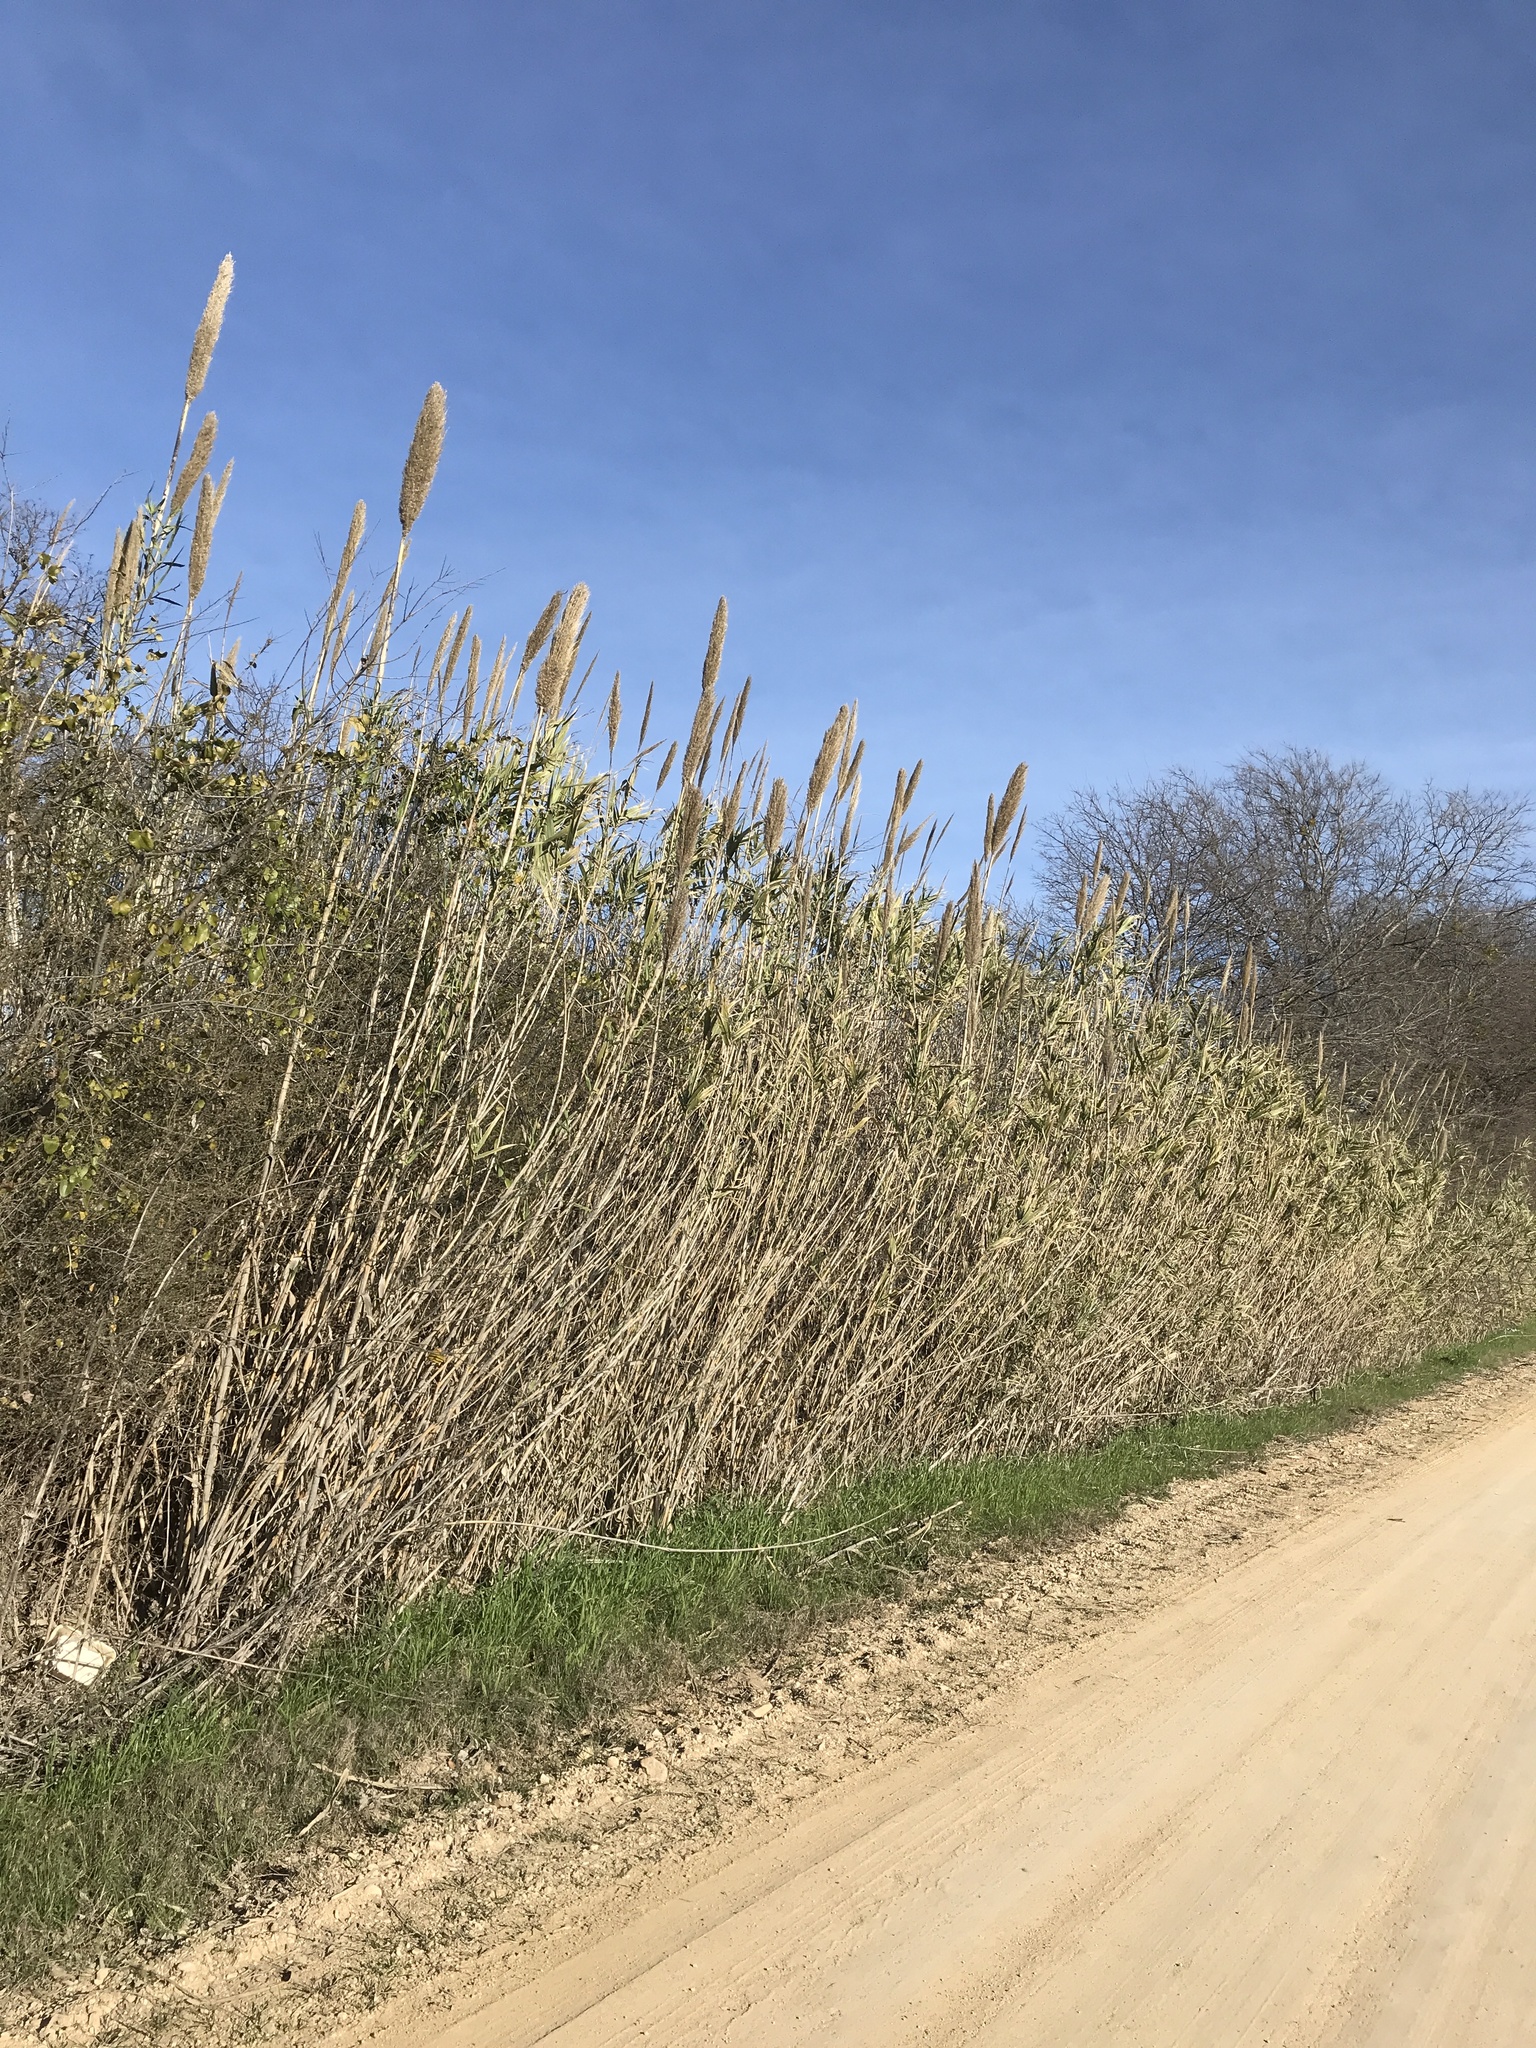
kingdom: Plantae
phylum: Tracheophyta
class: Liliopsida
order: Poales
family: Poaceae
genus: Arundo
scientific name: Arundo donax
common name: Giant reed
